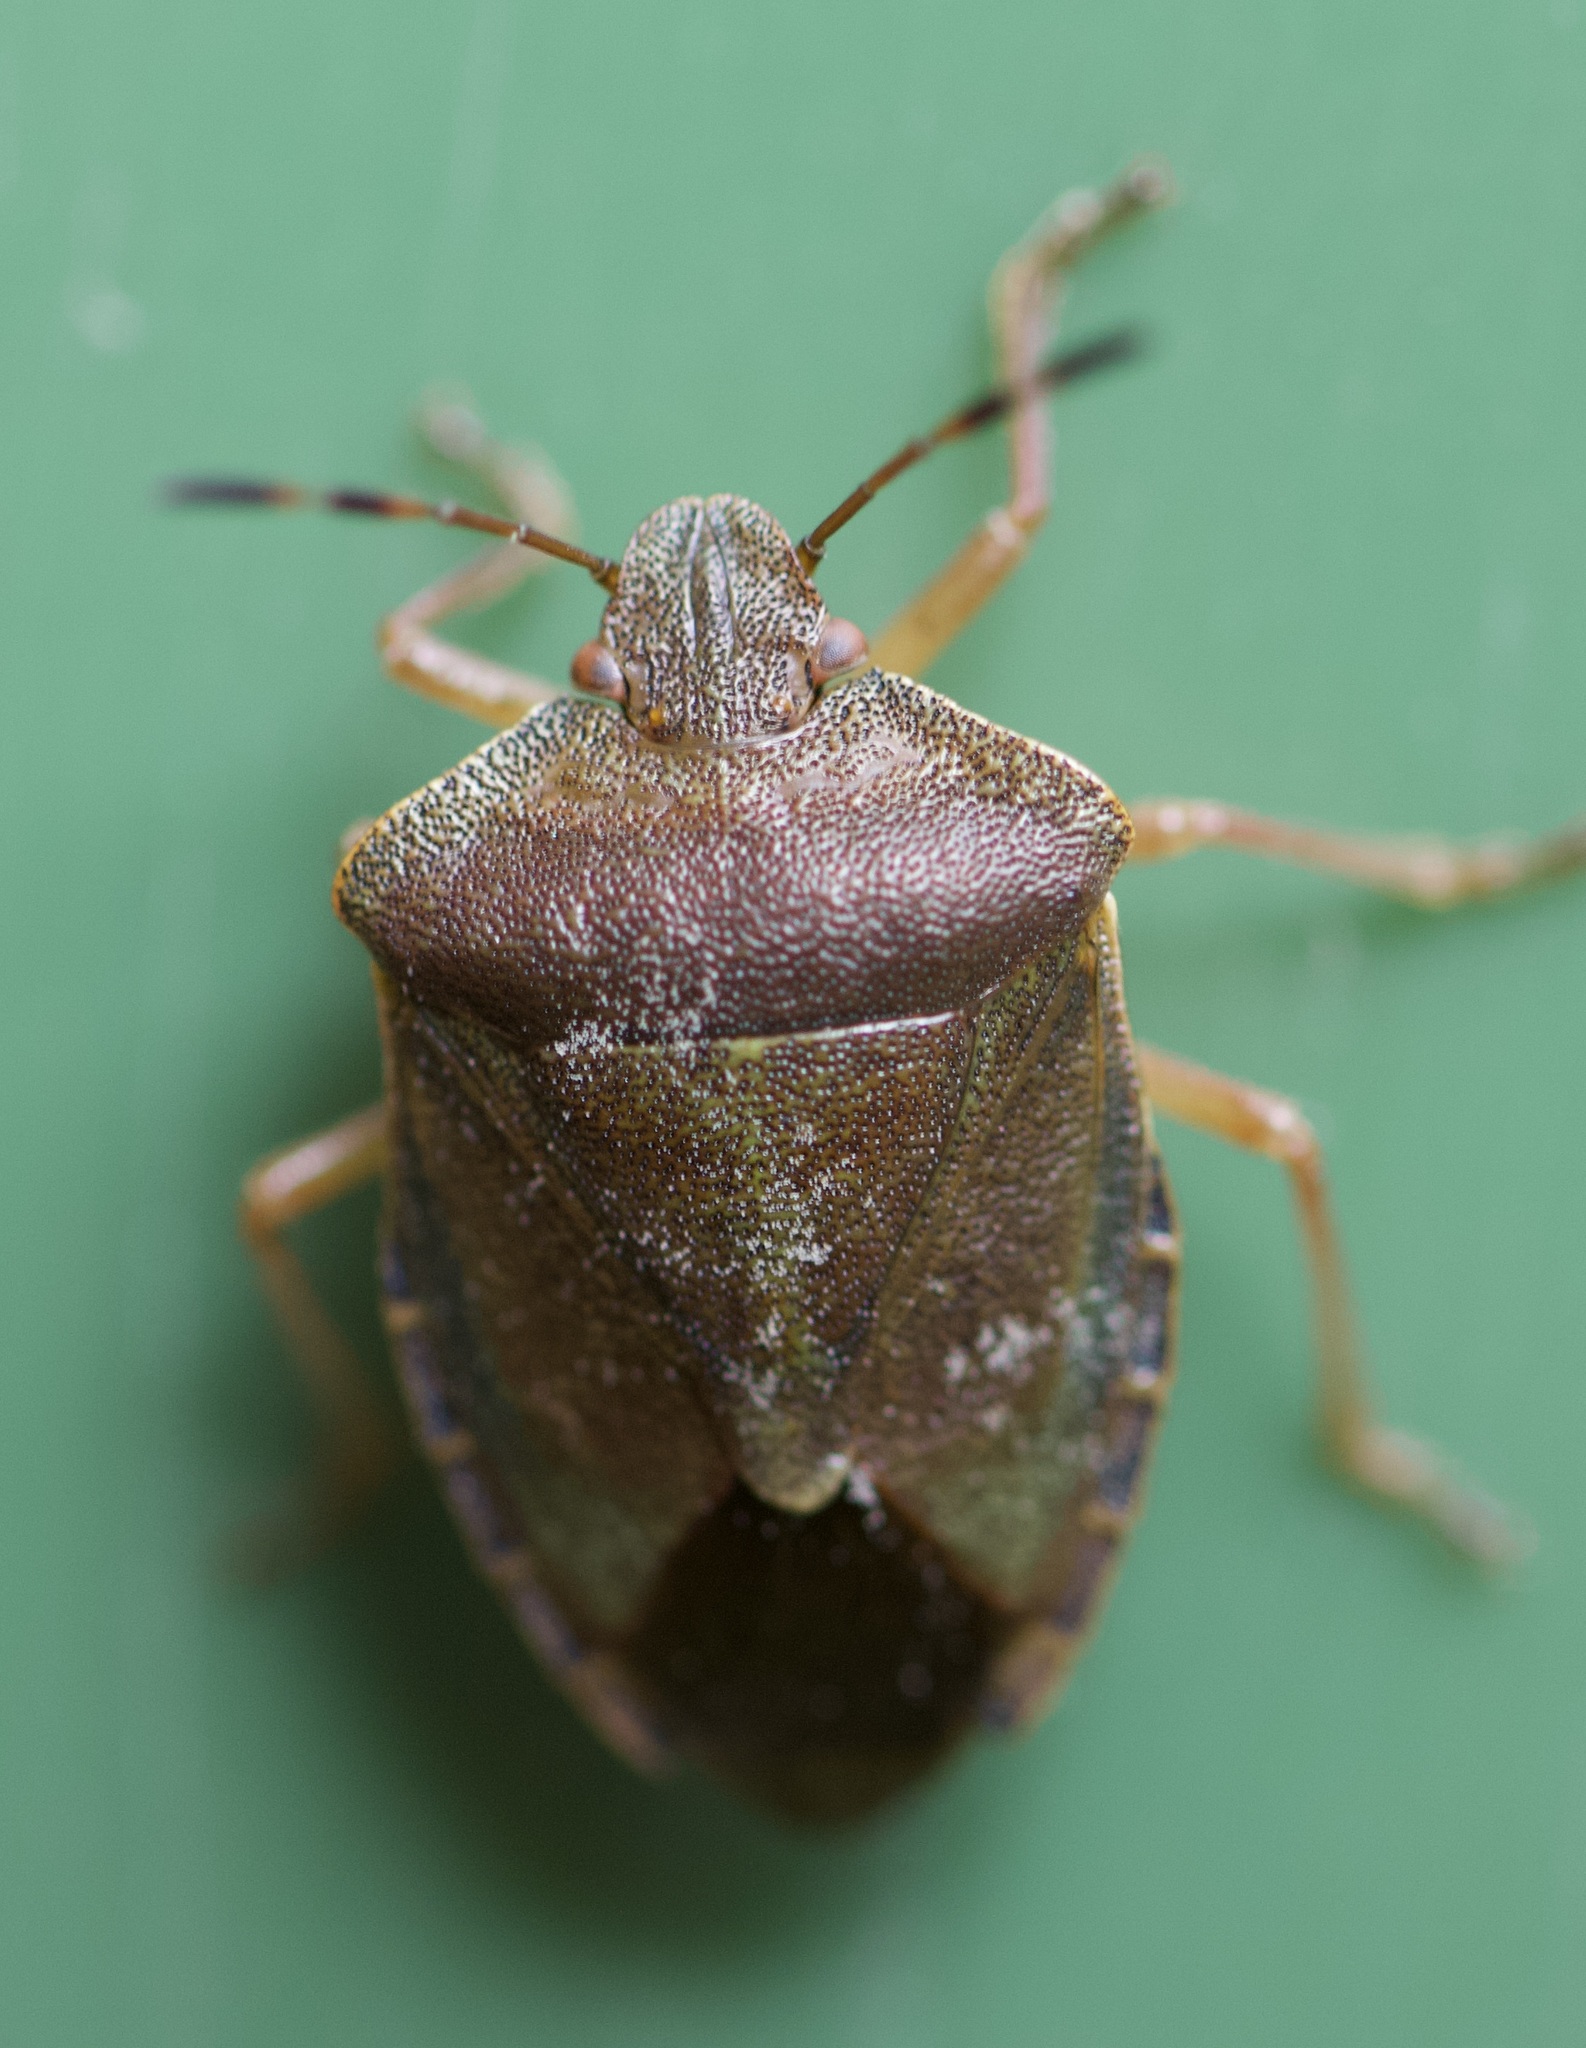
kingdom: Animalia
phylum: Arthropoda
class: Insecta
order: Hemiptera
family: Pentatomidae
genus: Palomena
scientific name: Palomena prasina
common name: Green shieldbug
